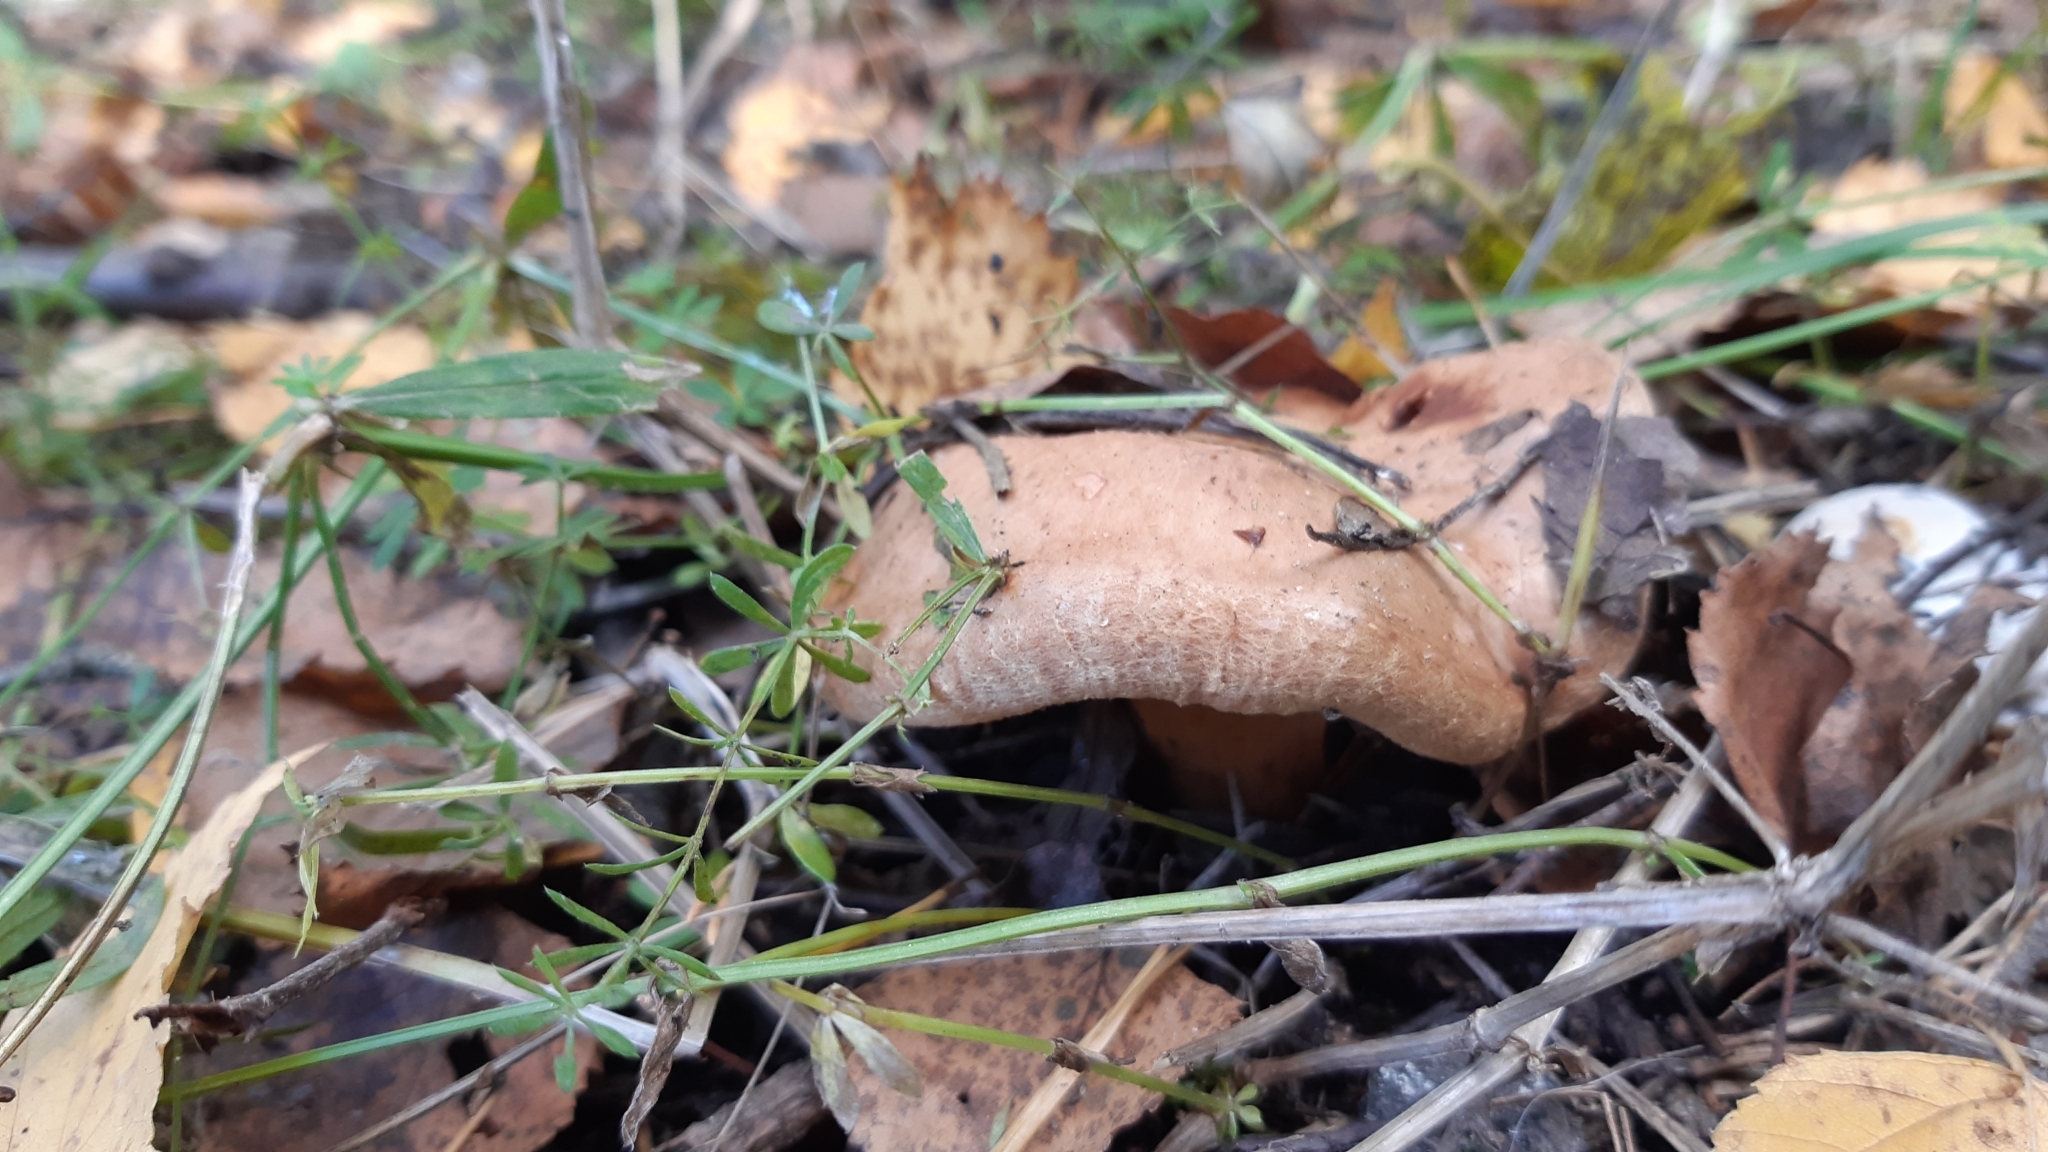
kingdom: Fungi
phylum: Basidiomycota
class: Agaricomycetes
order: Boletales
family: Paxillaceae
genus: Paxillus
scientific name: Paxillus involutus
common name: Brown roll rim
